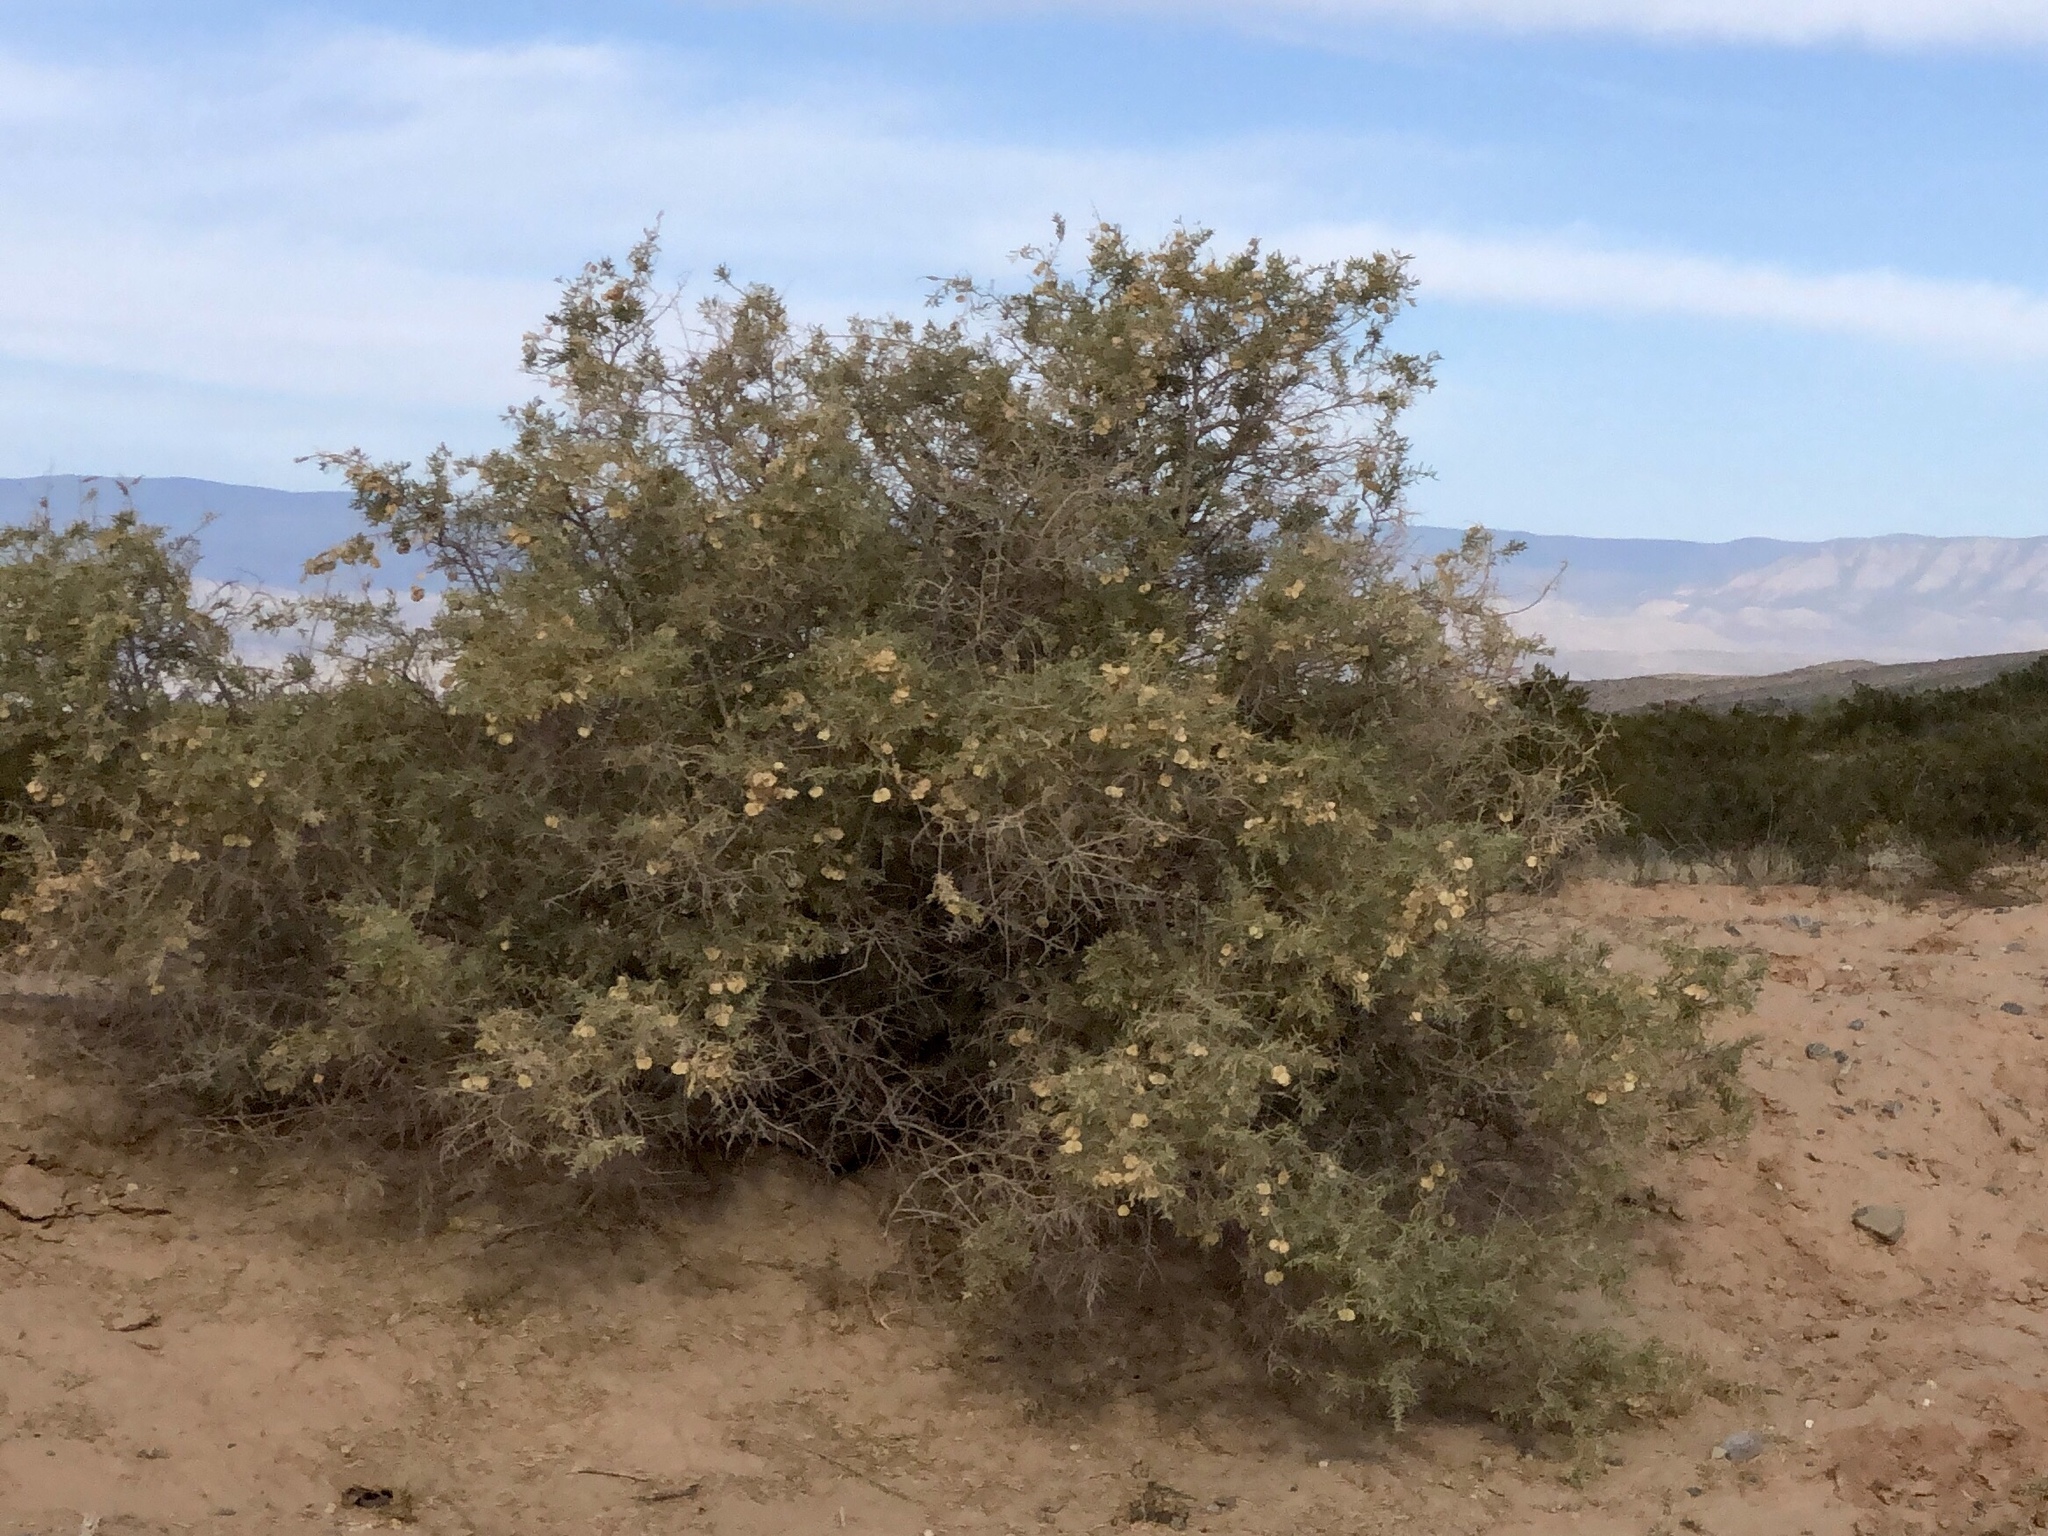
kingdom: Plantae
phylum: Tracheophyta
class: Magnoliopsida
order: Caryophyllales
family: Amaranthaceae
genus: Atriplex
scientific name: Atriplex canescens
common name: Four-wing saltbush
